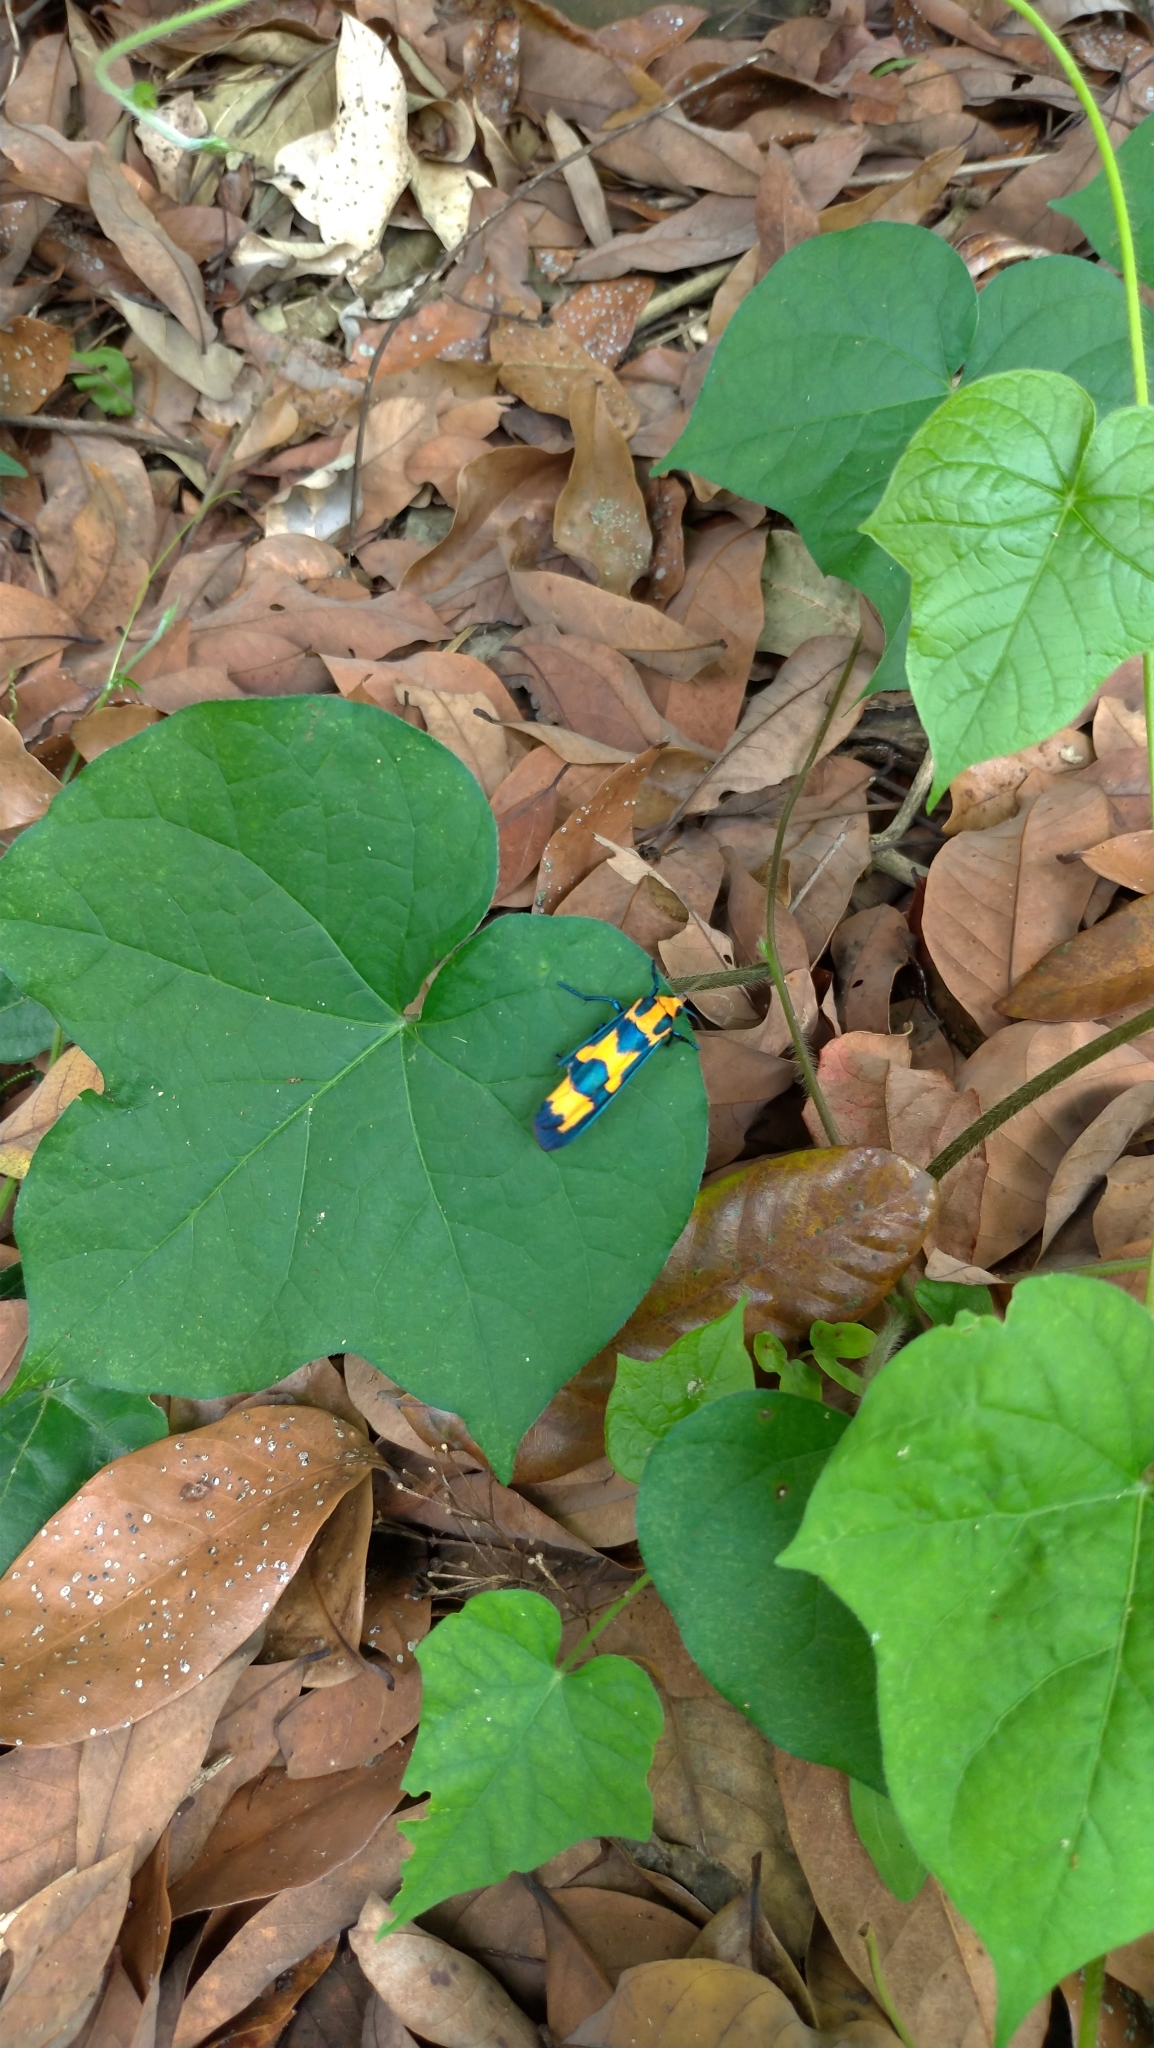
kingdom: Animalia
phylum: Arthropoda
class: Insecta
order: Lepidoptera
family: Erebidae
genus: Chrysaeglia
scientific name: Chrysaeglia magnifica
